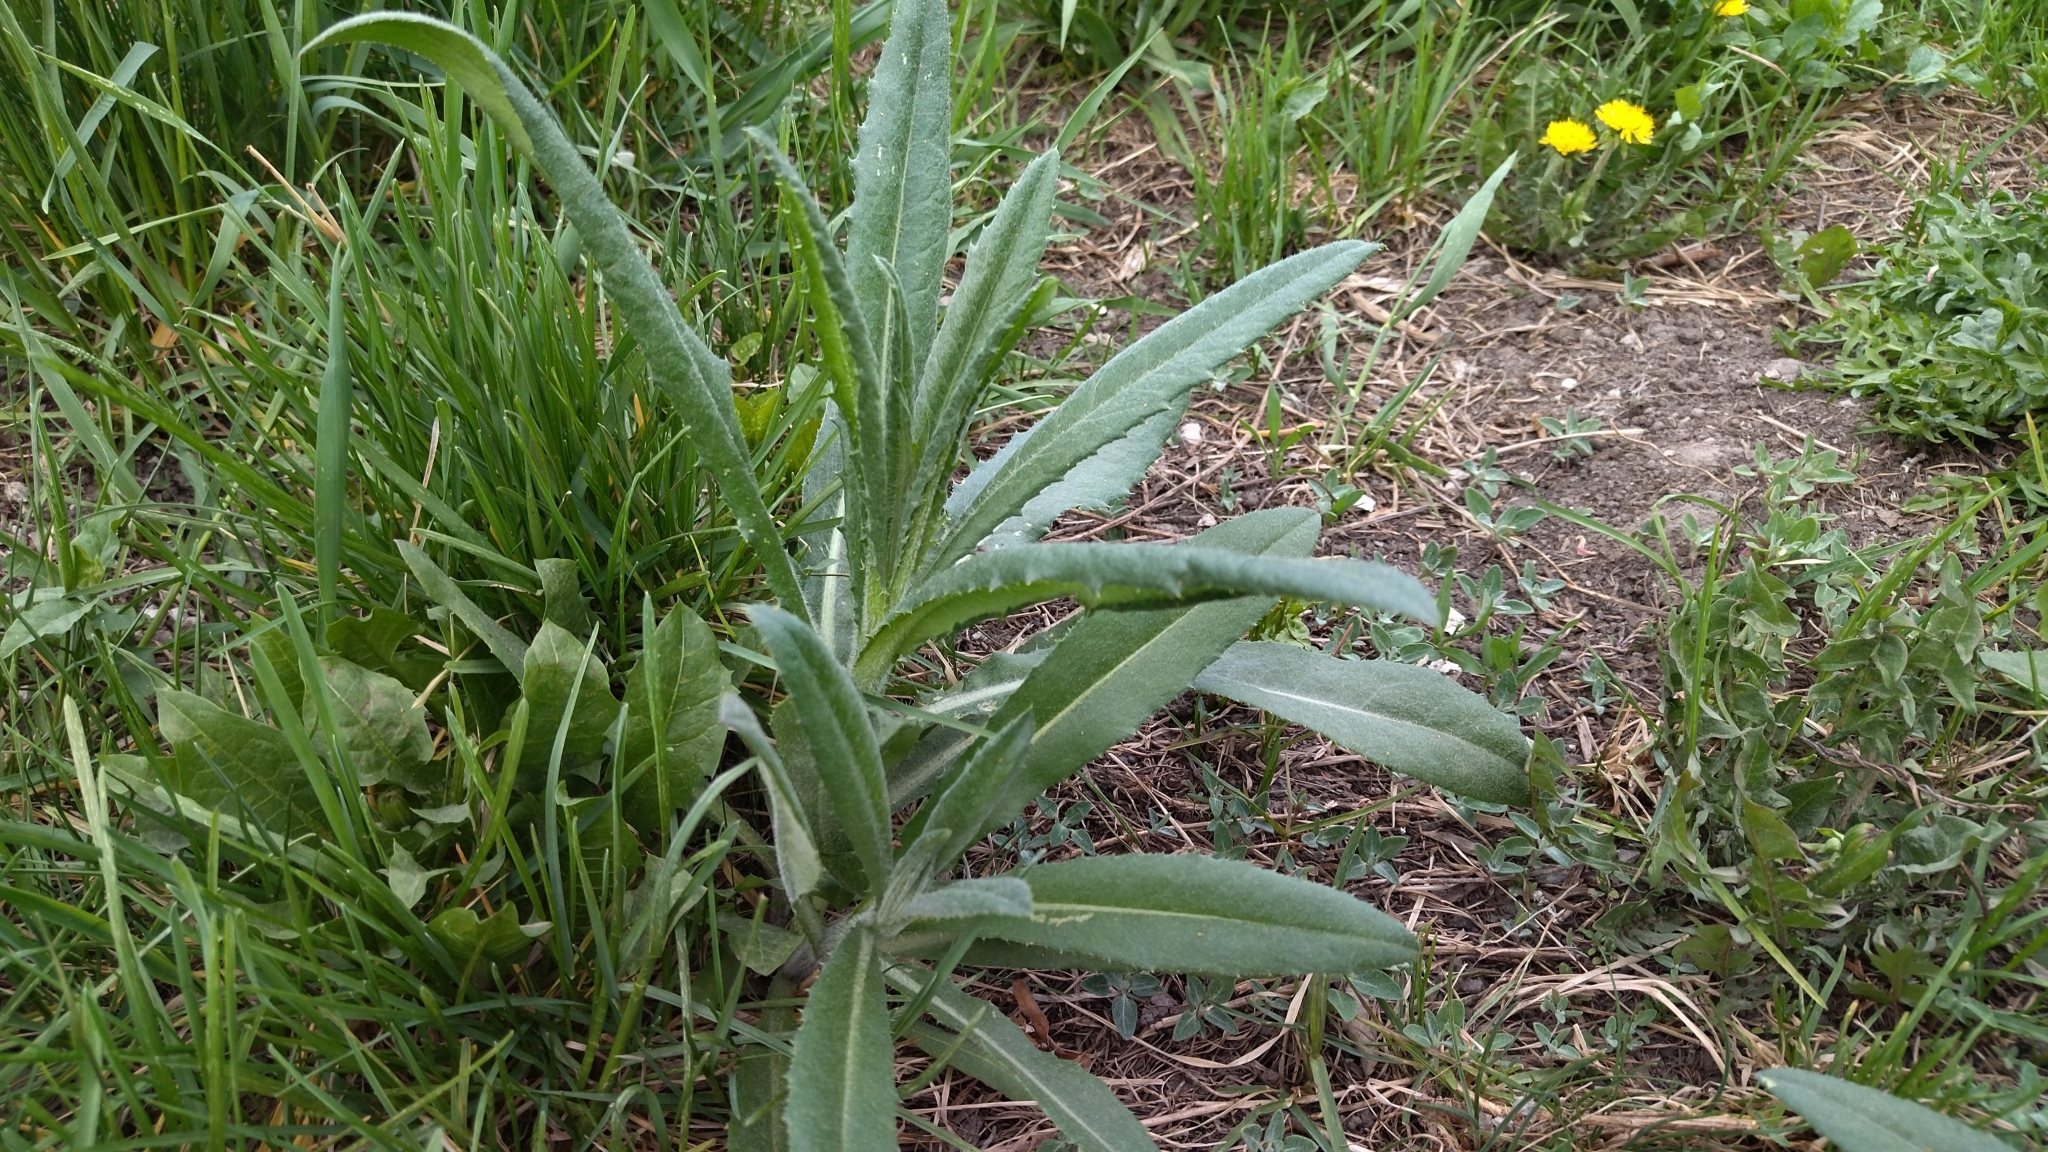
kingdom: Plantae
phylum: Tracheophyta
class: Magnoliopsida
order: Asterales
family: Asteraceae
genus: Cirsium
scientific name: Cirsium arvense
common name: Creeping thistle
